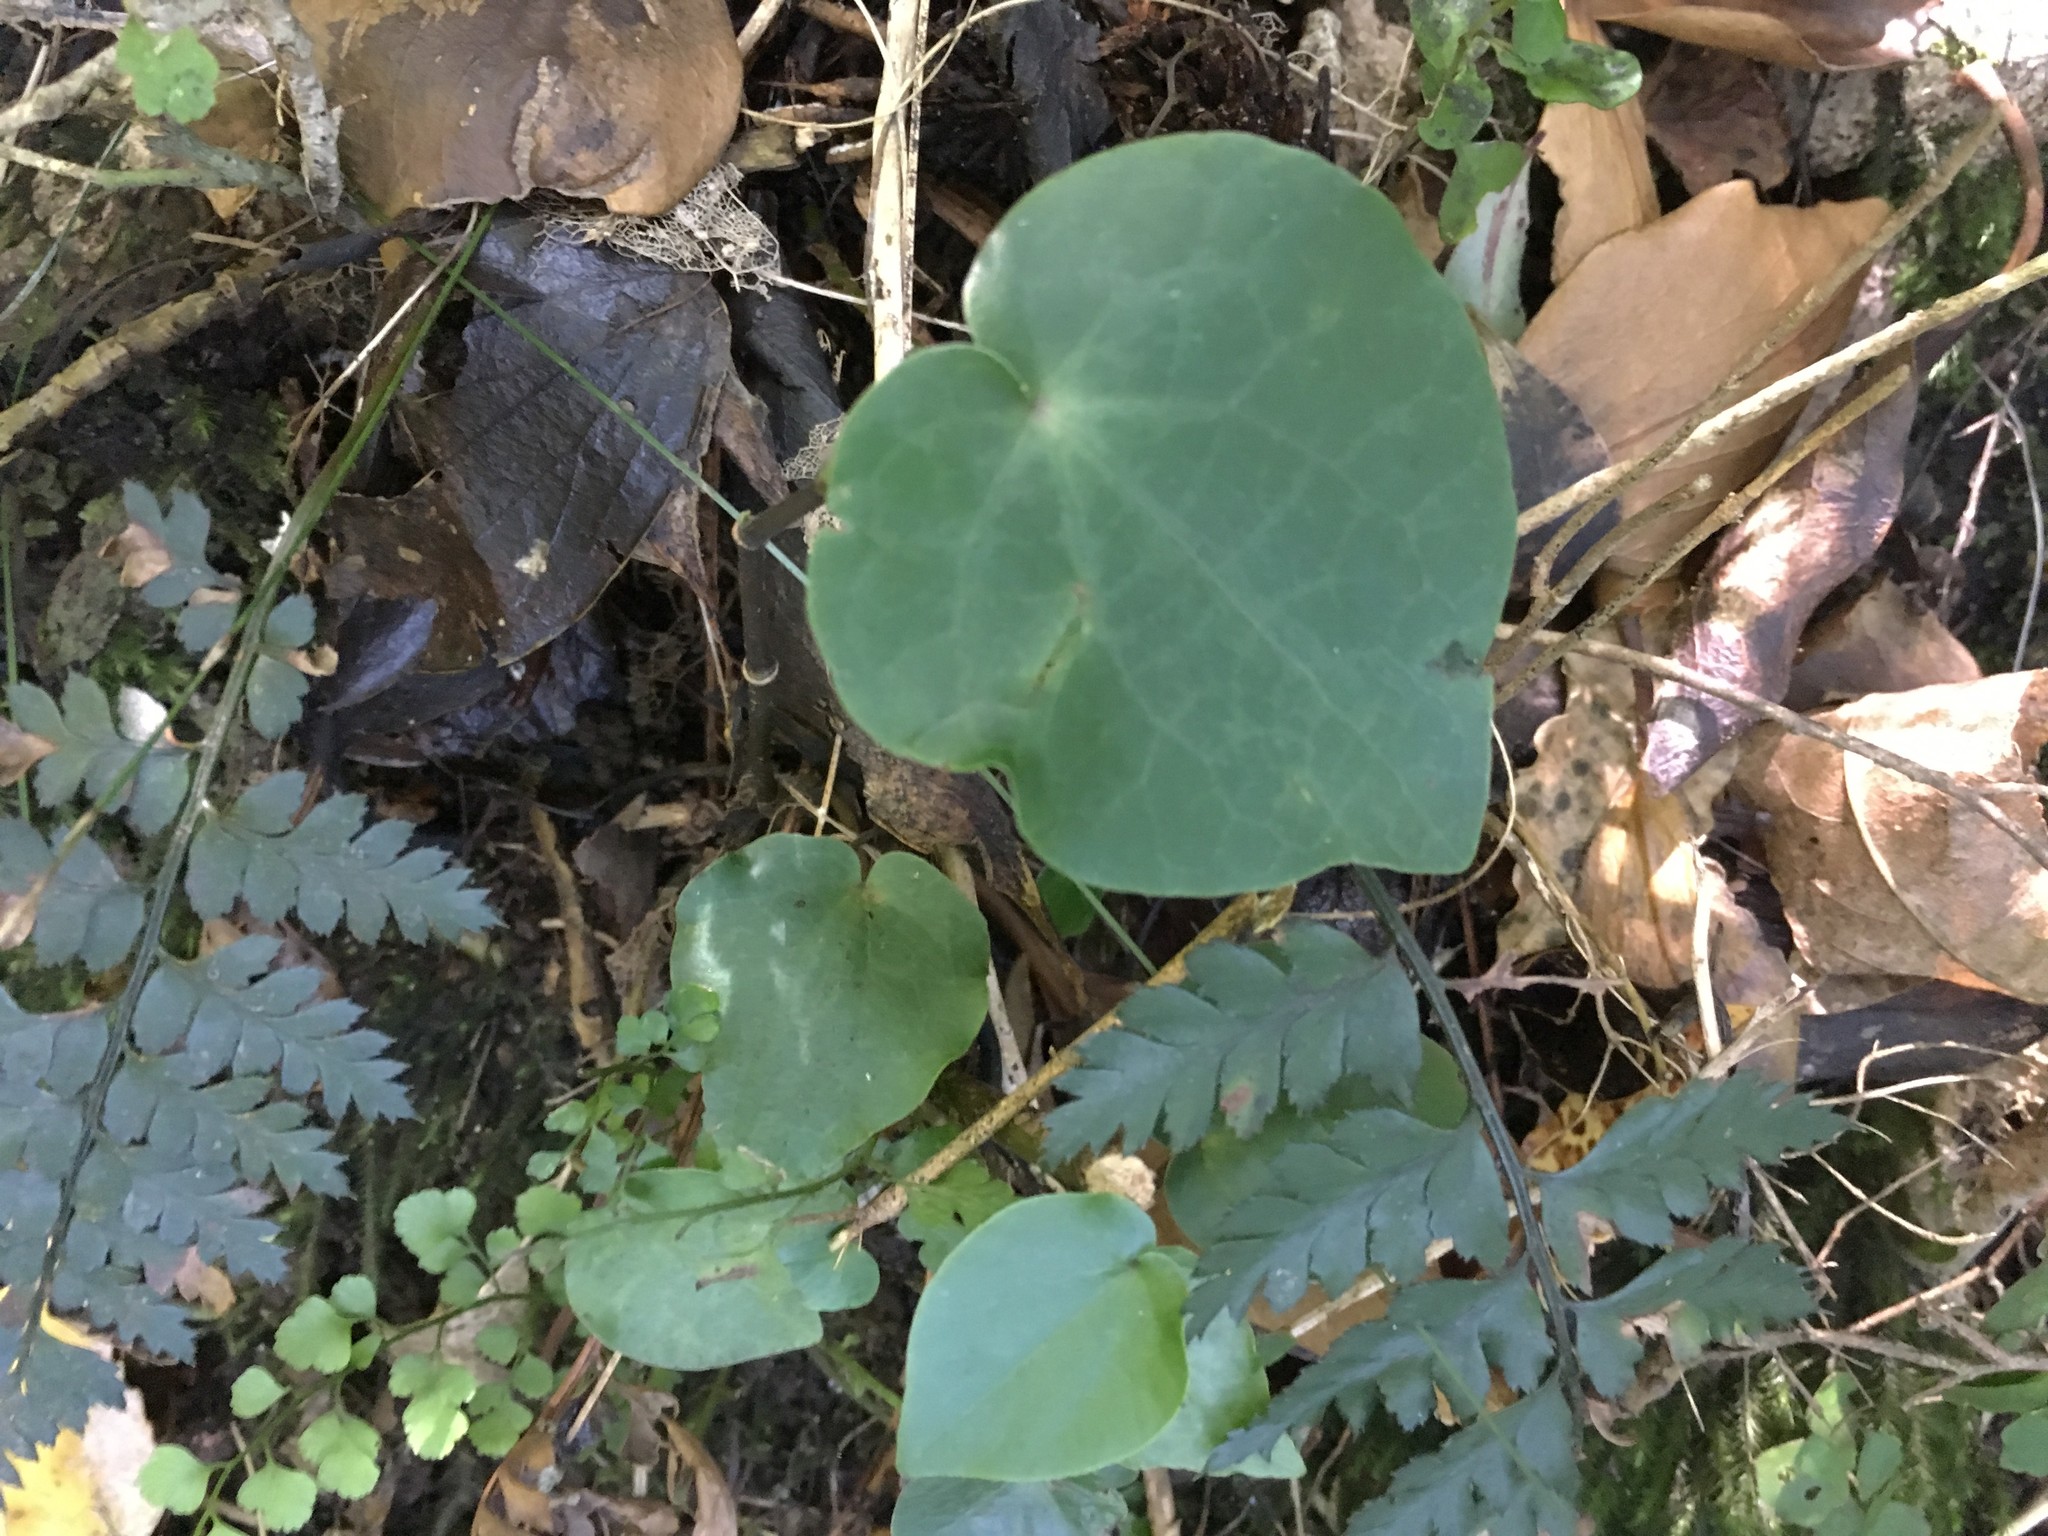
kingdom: Plantae
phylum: Tracheophyta
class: Magnoliopsida
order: Piperales
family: Piperaceae
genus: Macropiper
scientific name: Macropiper excelsum
